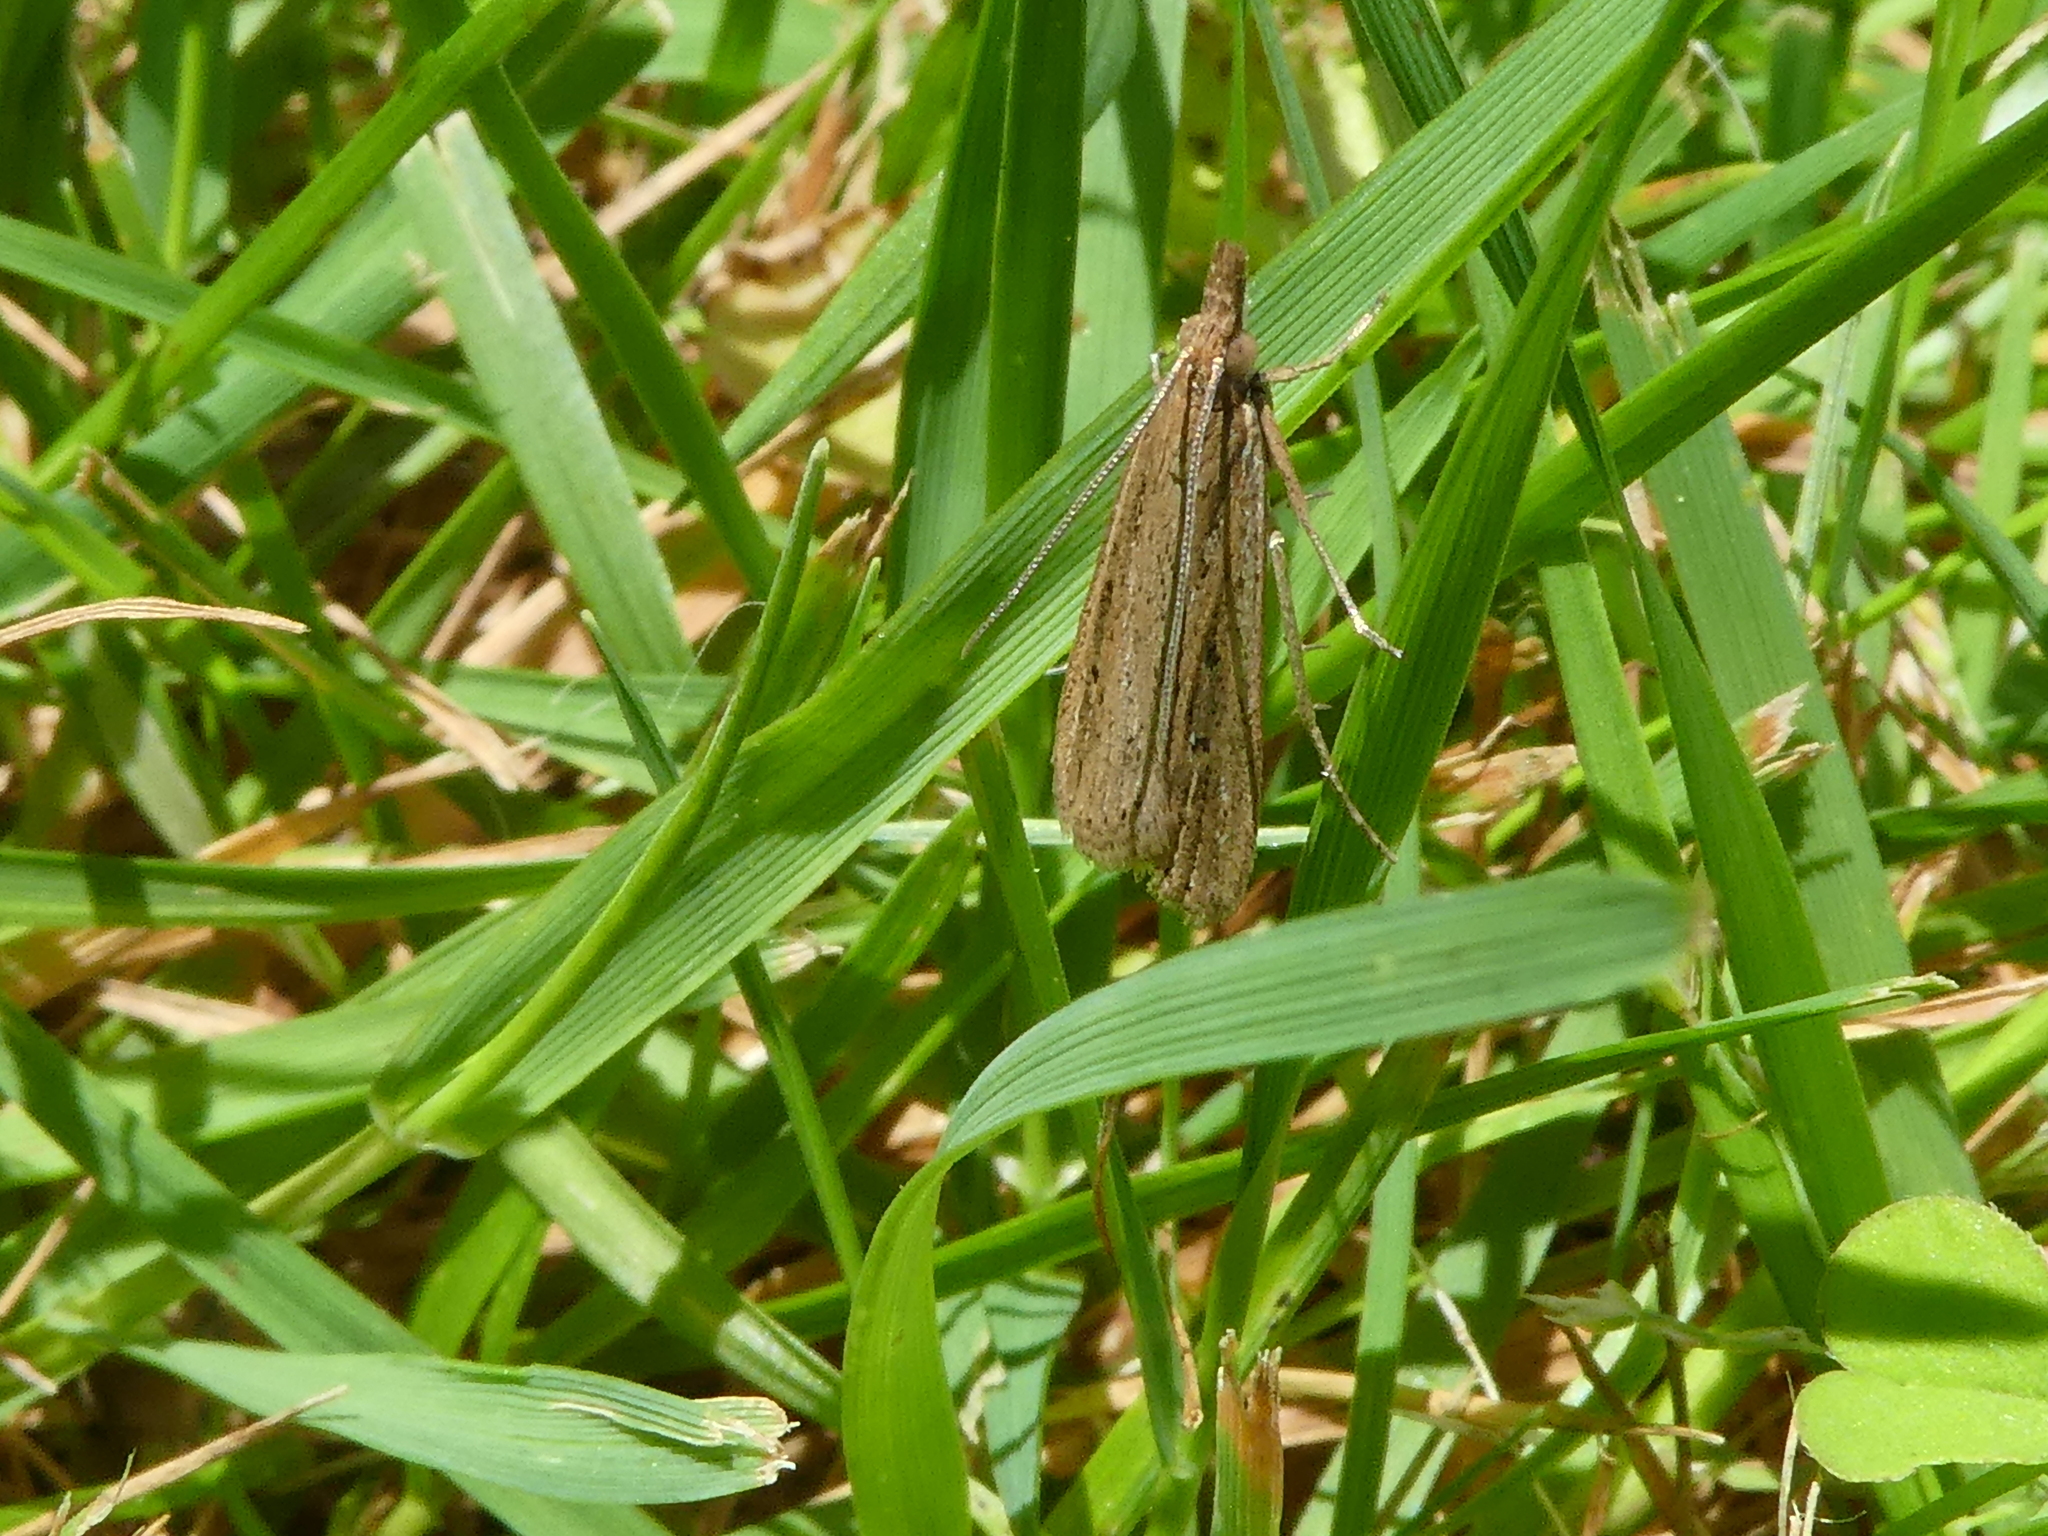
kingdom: Animalia
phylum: Arthropoda
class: Insecta
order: Lepidoptera
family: Crambidae
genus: Eudonia
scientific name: Eudonia sabulosella
